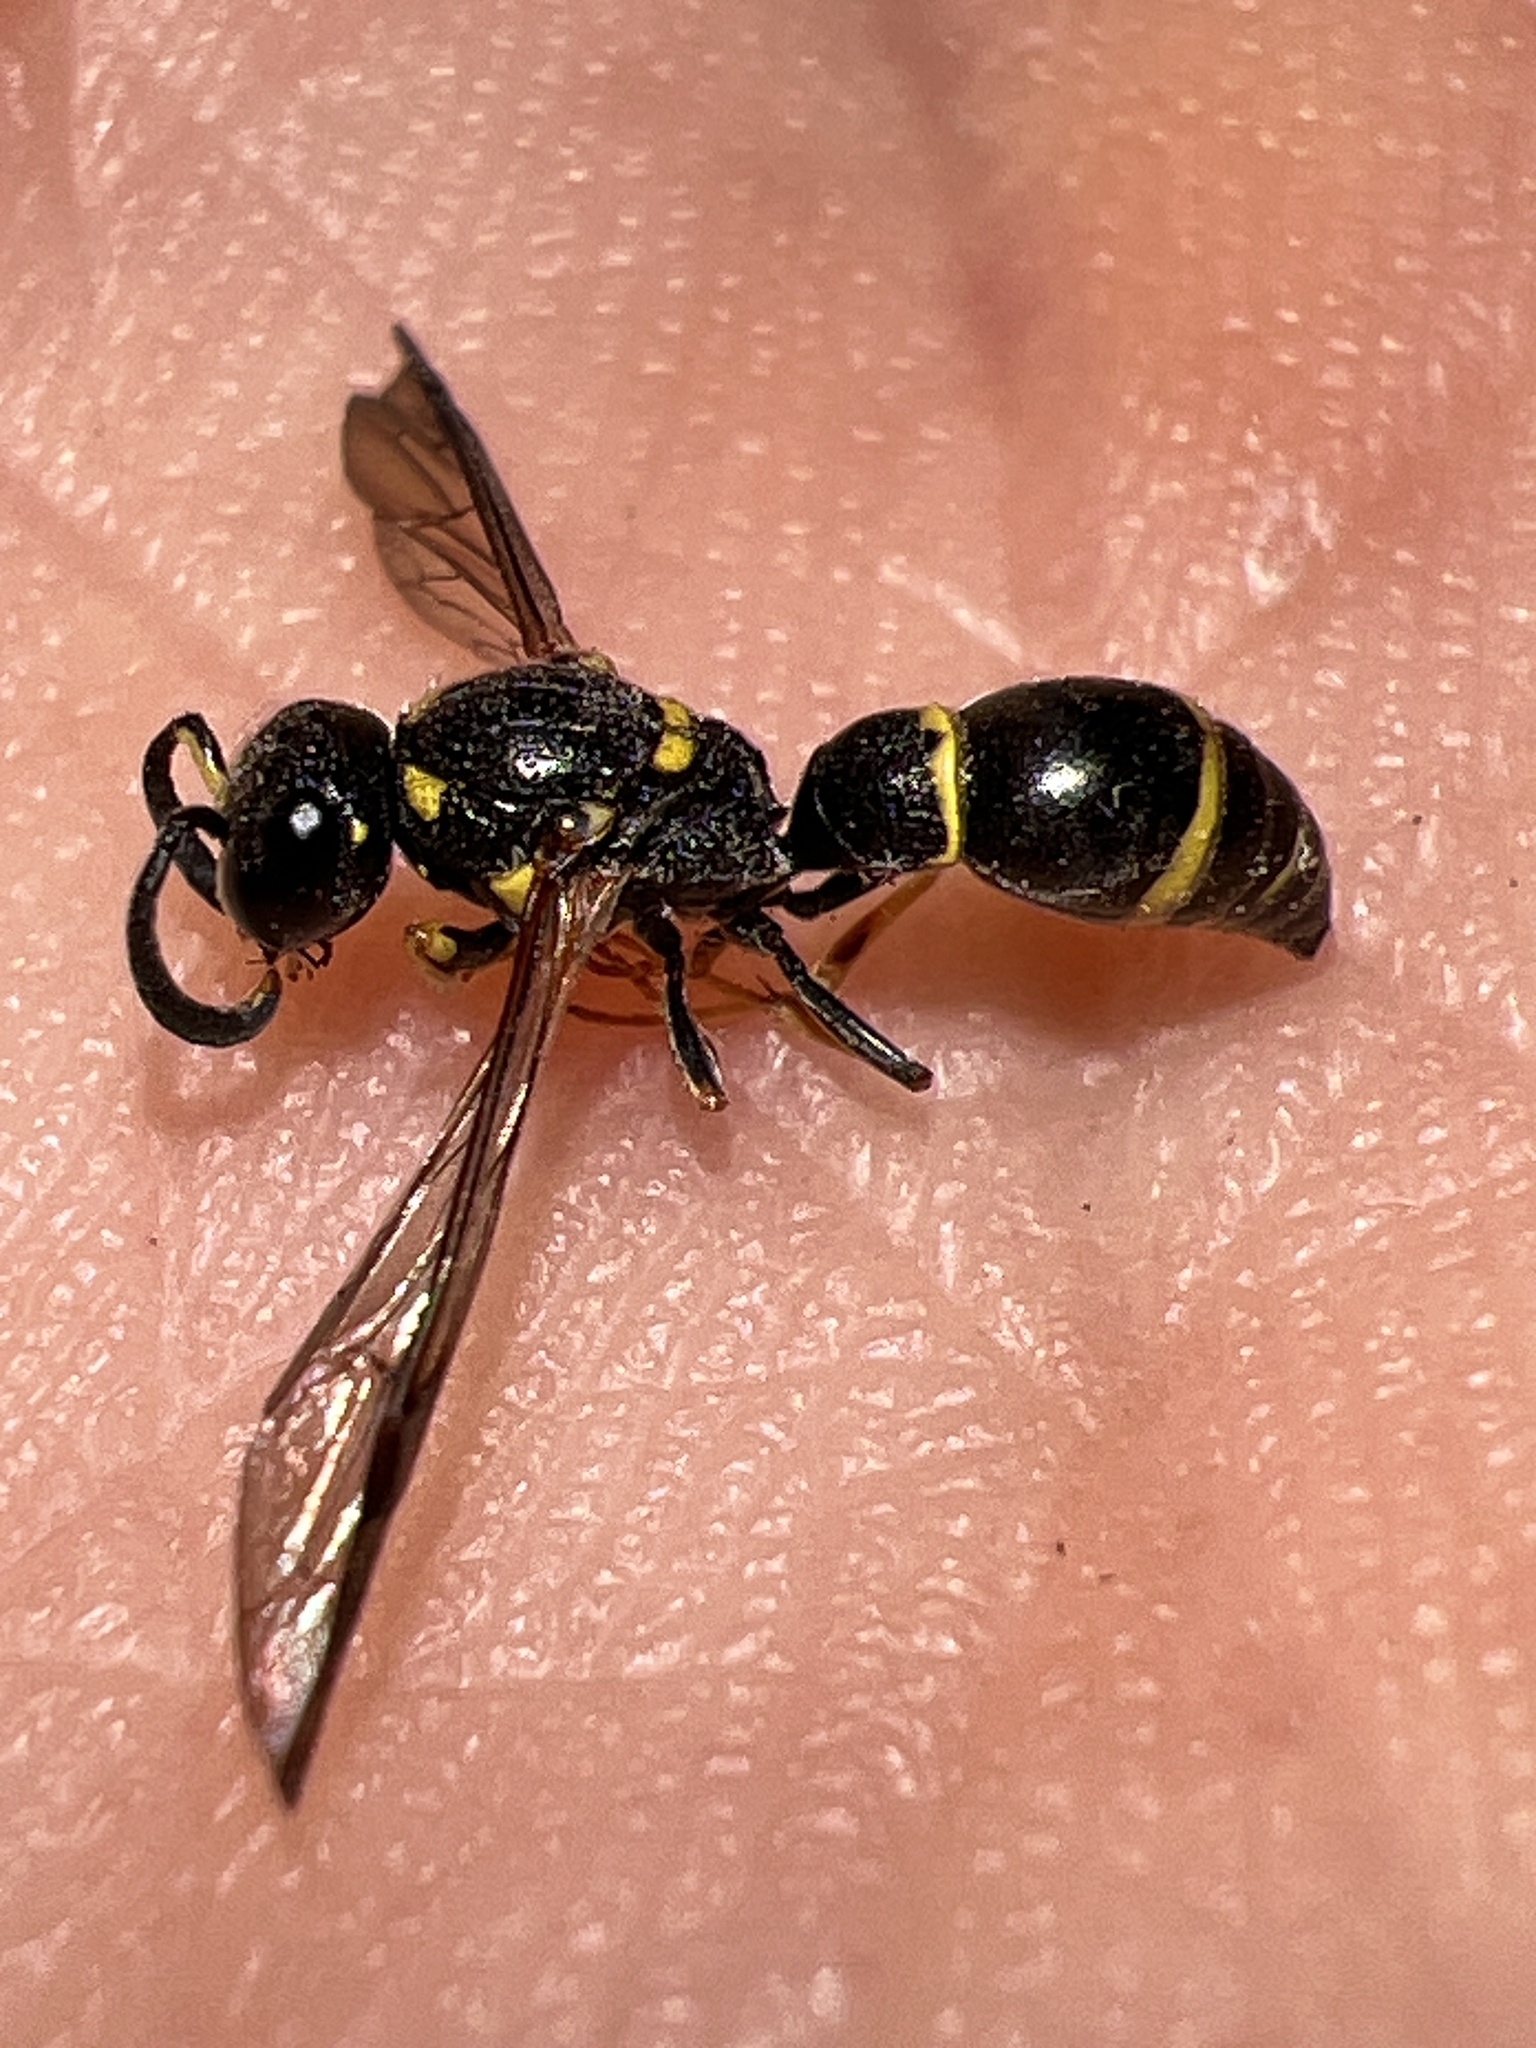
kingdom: Animalia
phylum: Arthropoda
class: Insecta
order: Hymenoptera
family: Eumenidae
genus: Symmorphus
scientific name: Symmorphus
